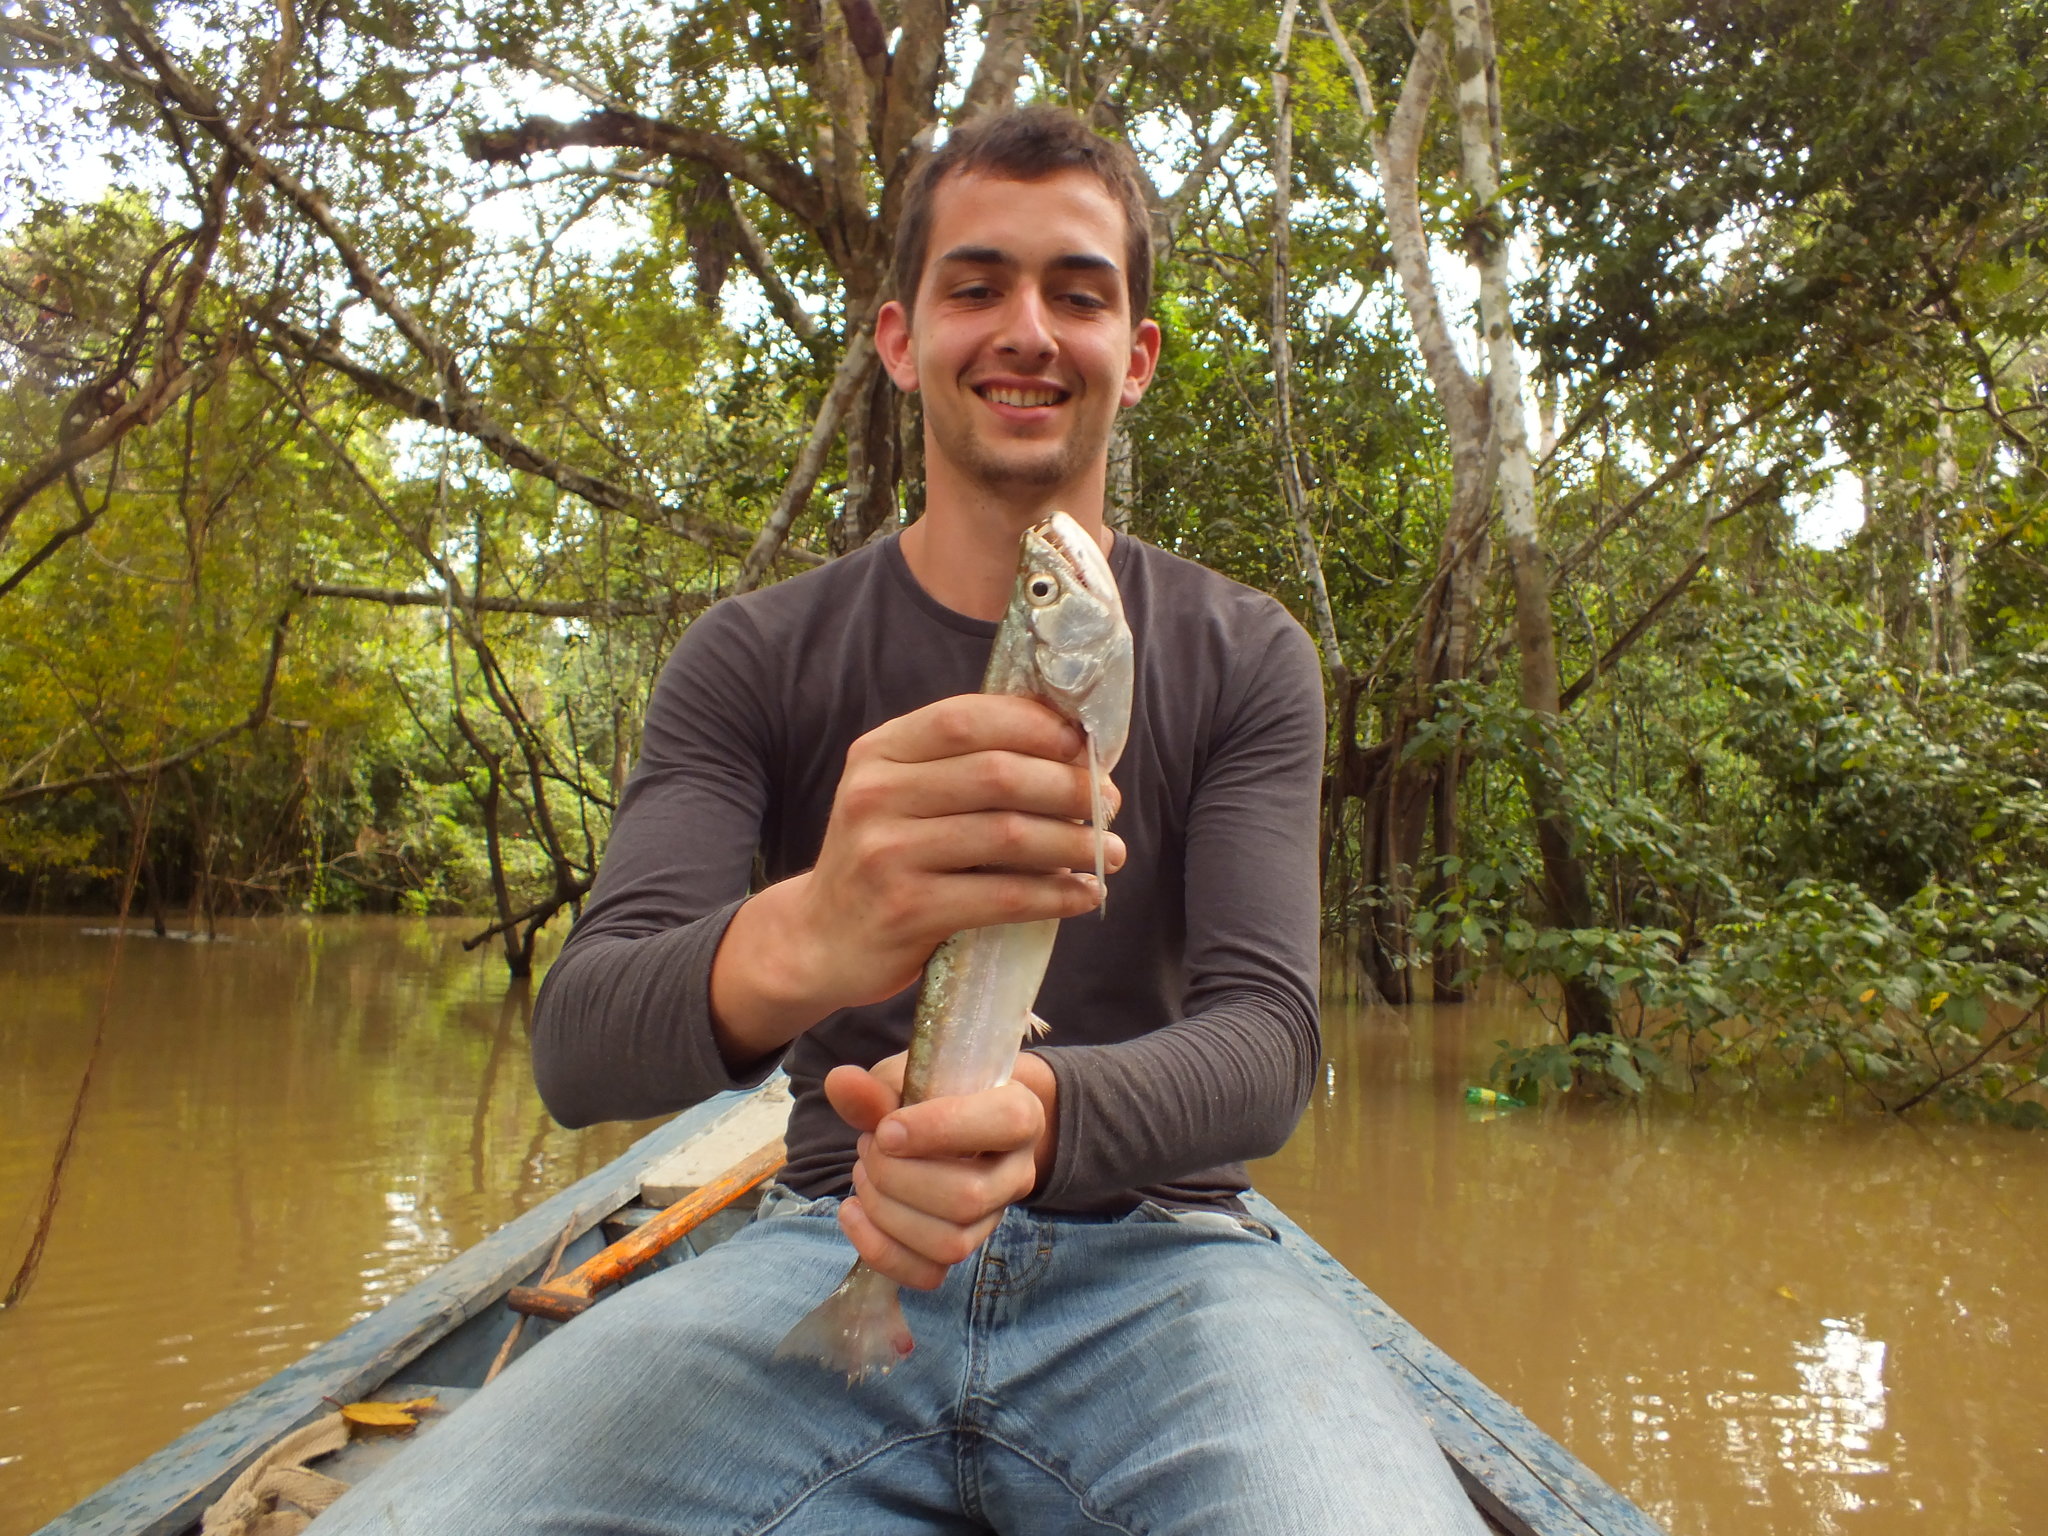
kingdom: Animalia
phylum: Chordata
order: Characiformes
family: Cynodontidae
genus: Rhaphiodon
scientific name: Rhaphiodon vulpinus
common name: Biara
